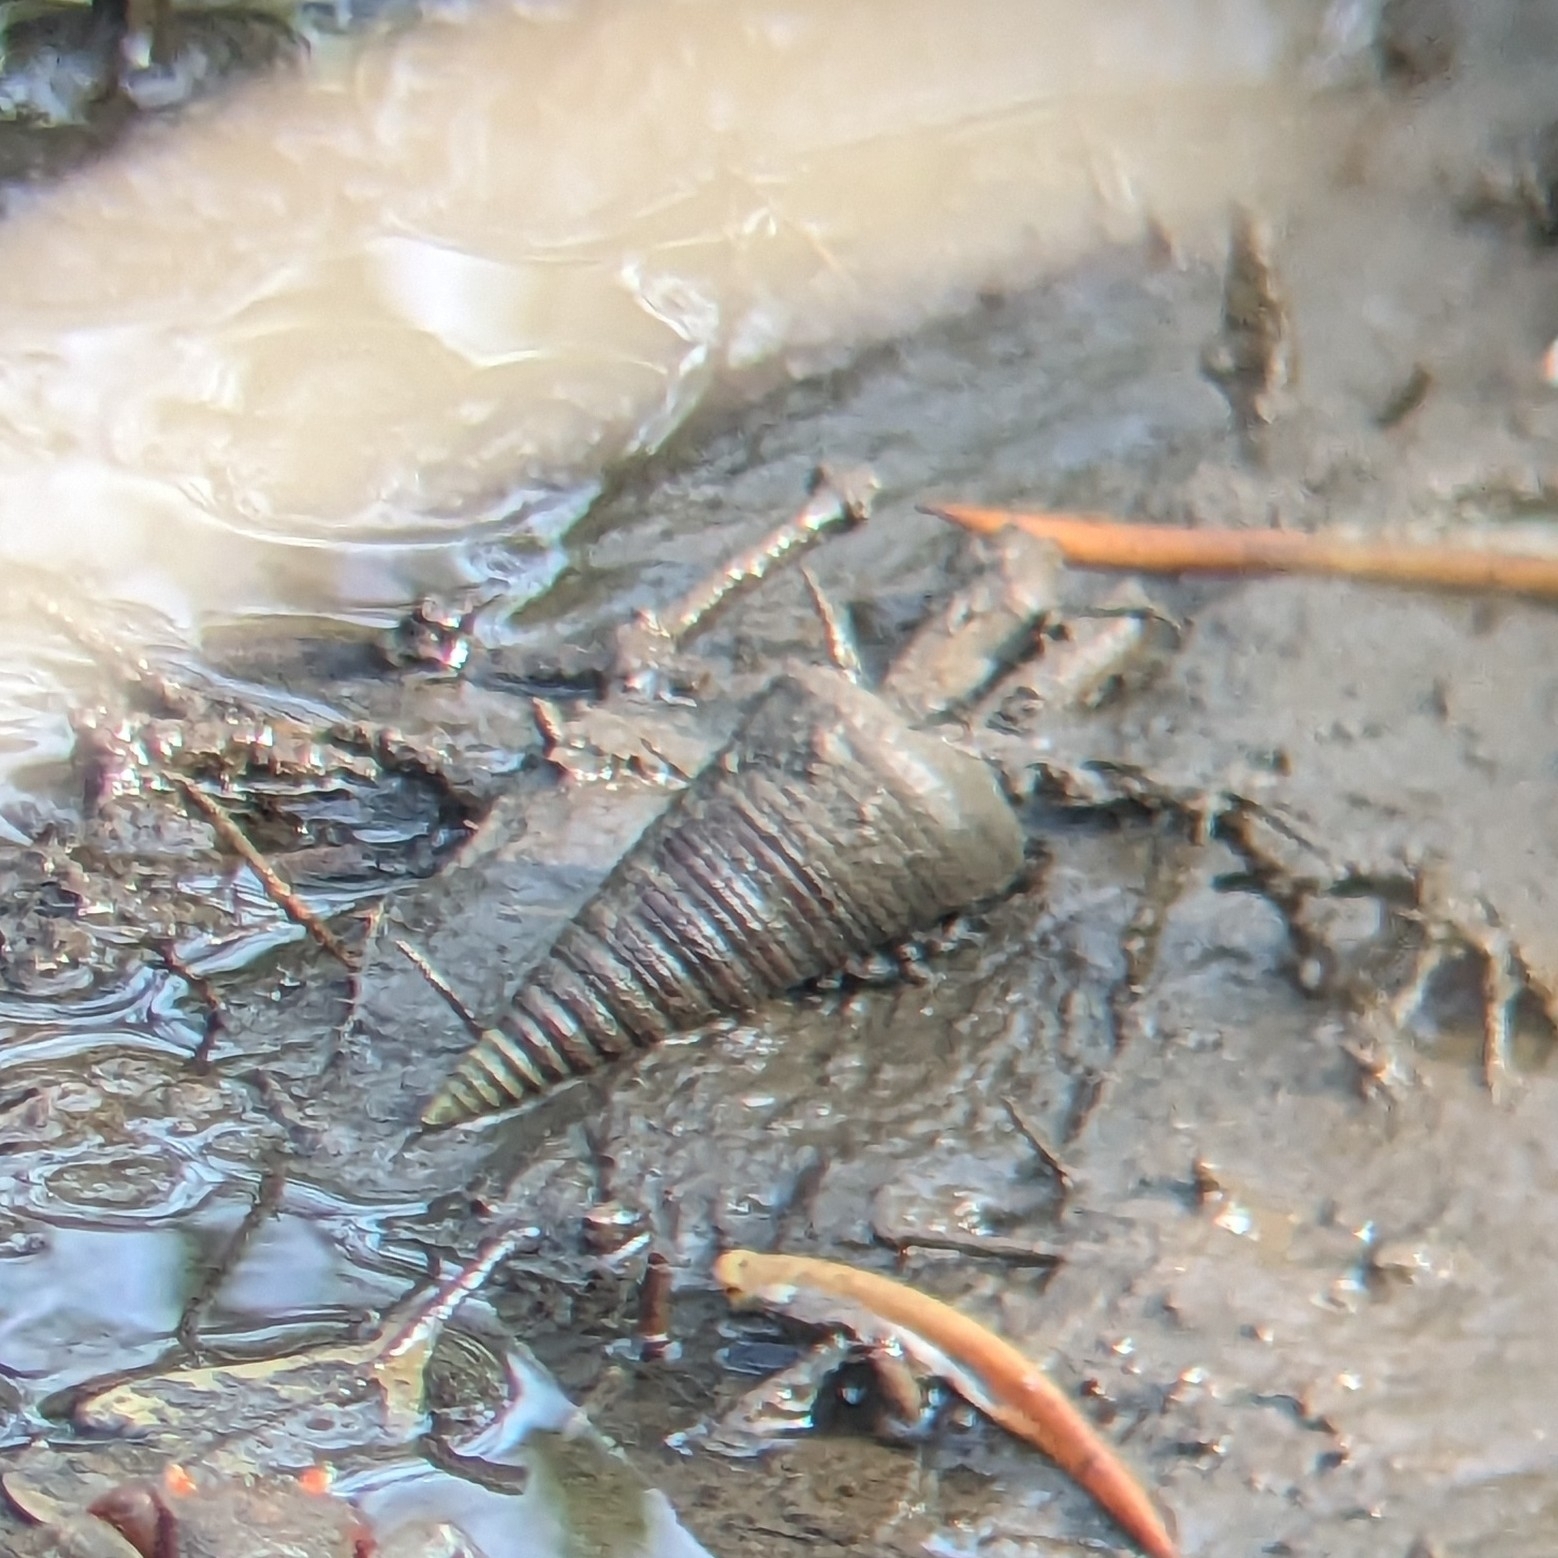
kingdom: Animalia
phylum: Mollusca
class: Gastropoda
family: Potamididae
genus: Telescopium
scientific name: Telescopium telescopium
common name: Telescope creeper
